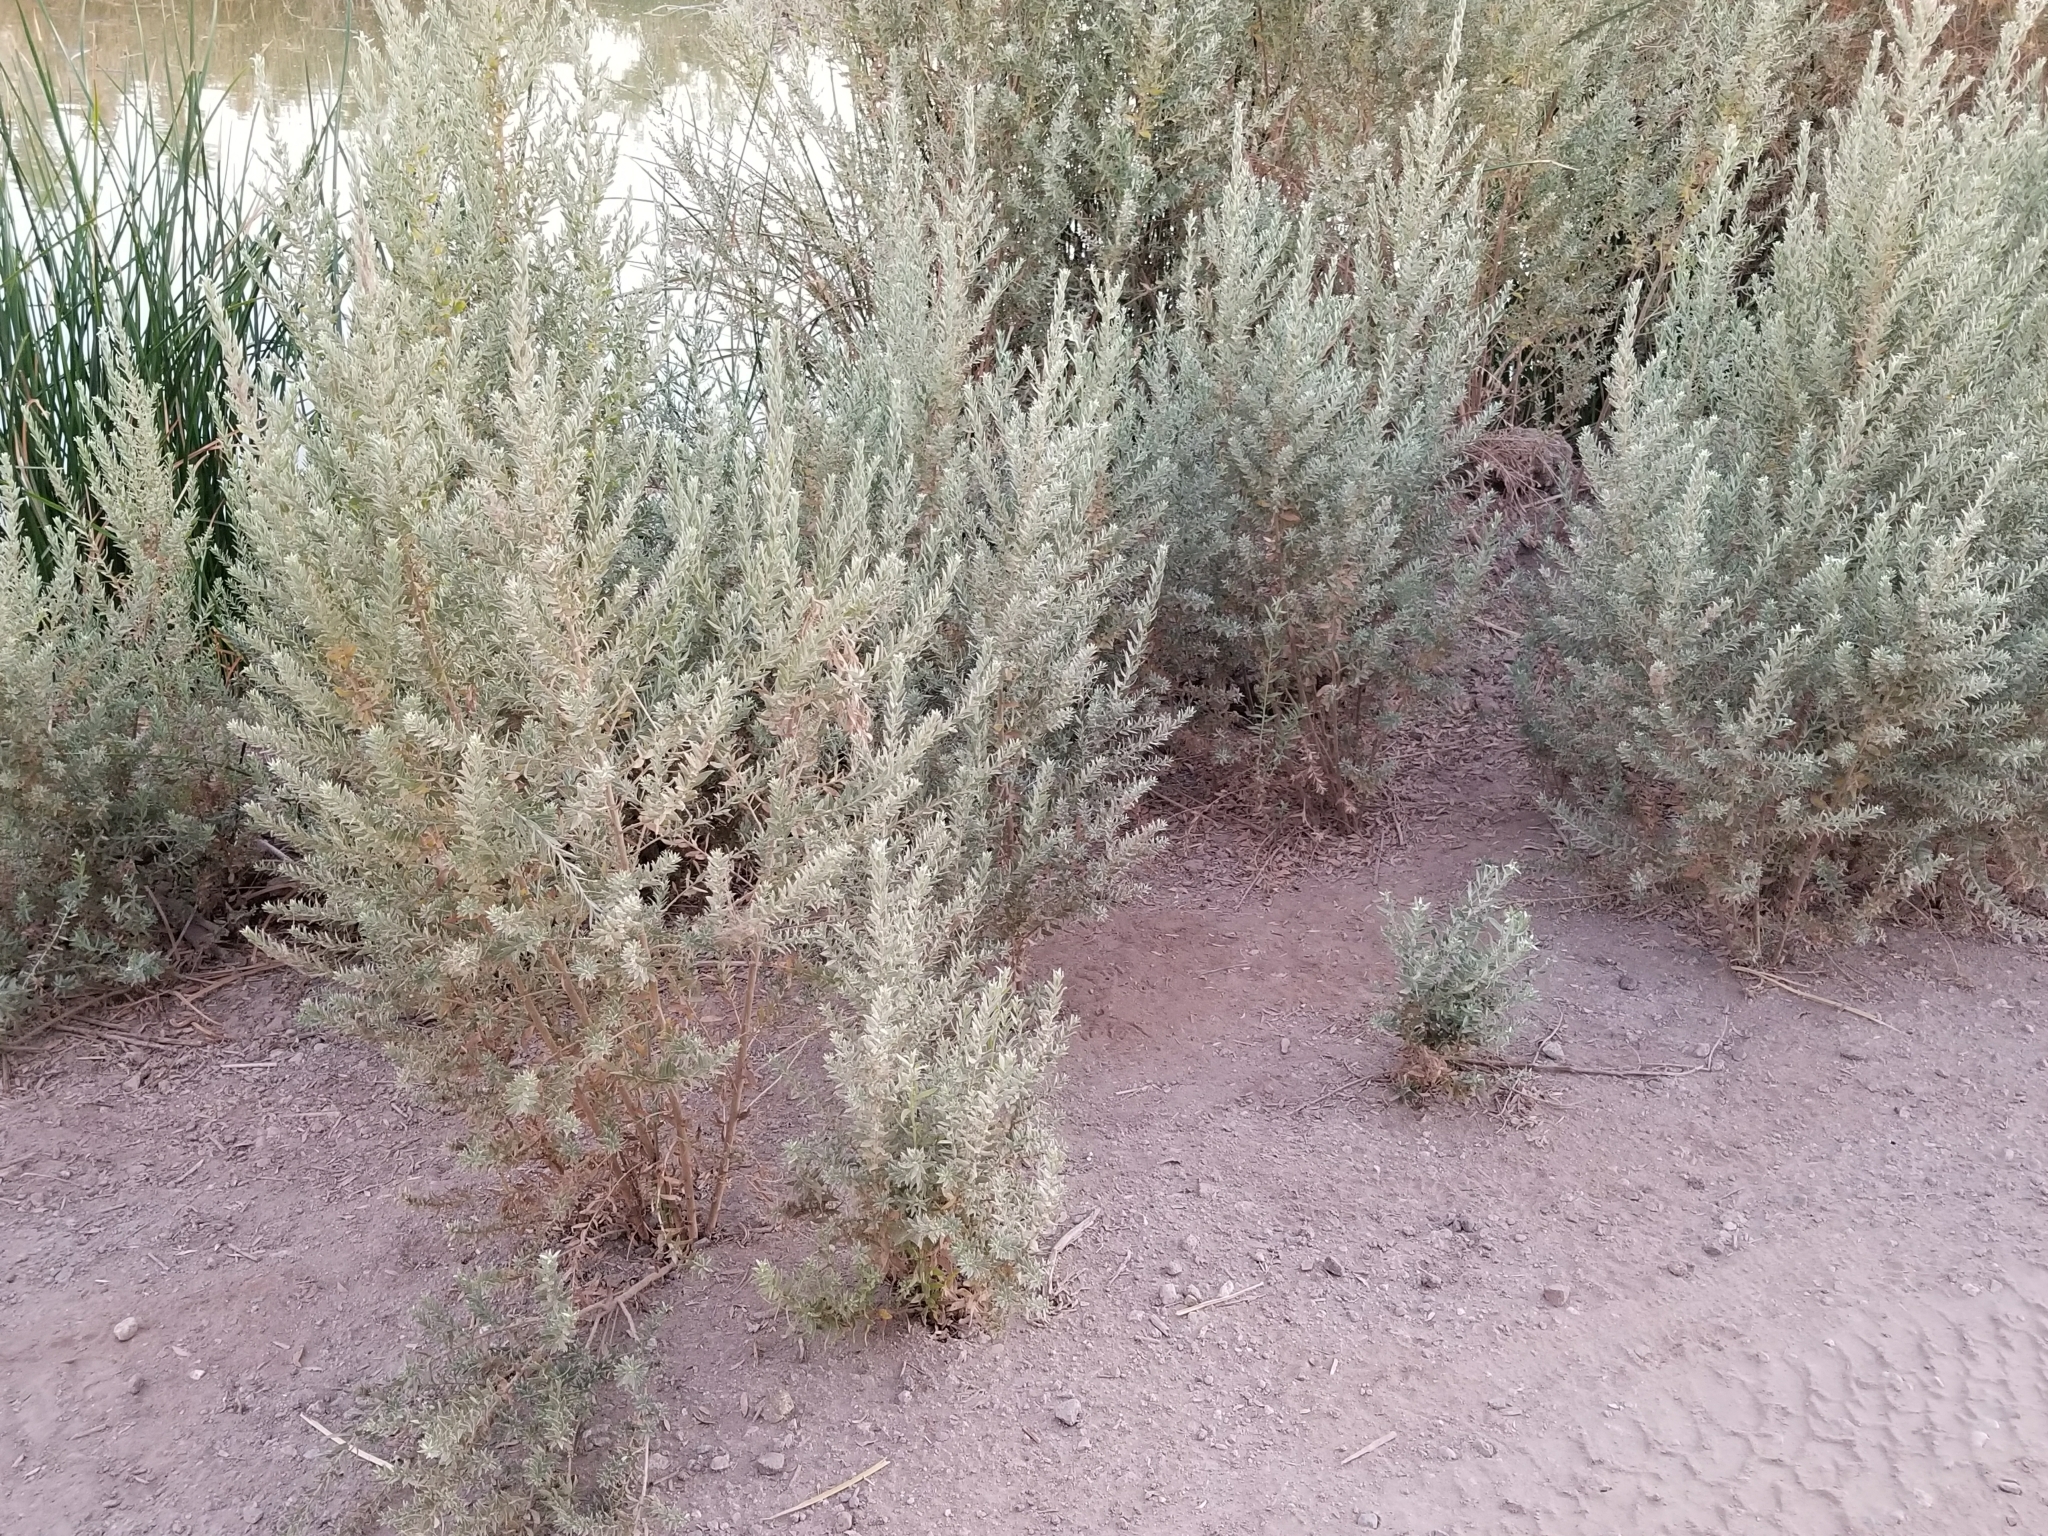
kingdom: Plantae
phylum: Tracheophyta
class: Magnoliopsida
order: Asterales
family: Asteraceae
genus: Pluchea
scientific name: Pluchea sericea
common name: Arrow-weed
